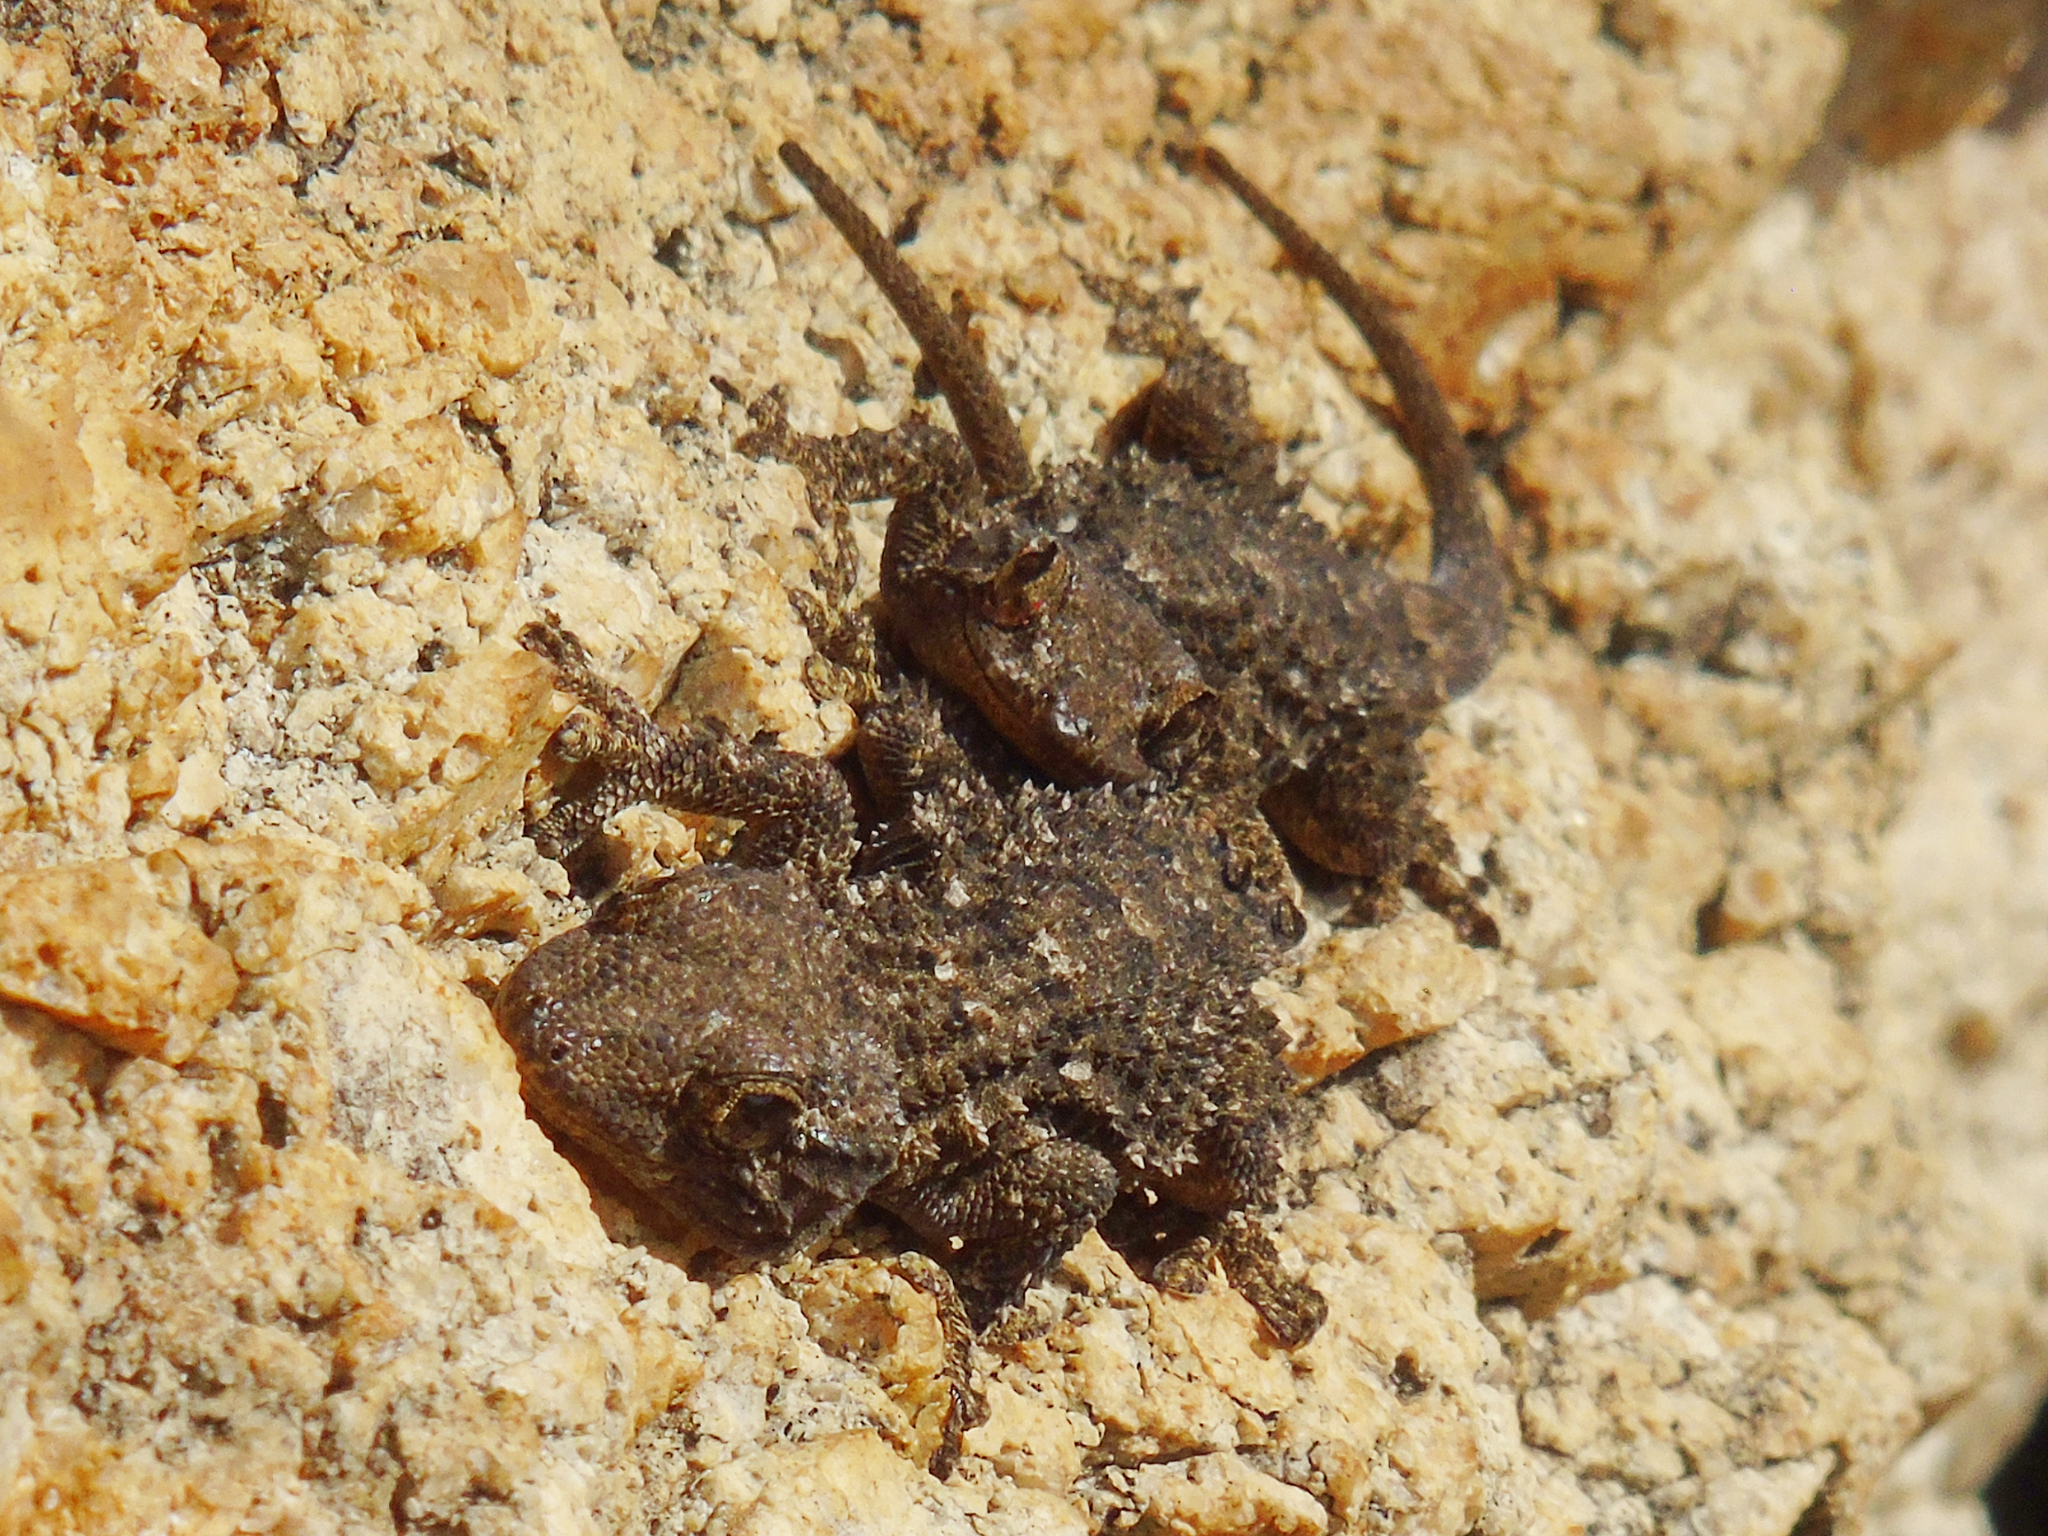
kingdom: Animalia
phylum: Chordata
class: Squamata
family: Phyllodactylidae
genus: Tarentola
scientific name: Tarentola mauritanica
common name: Moorish gecko
